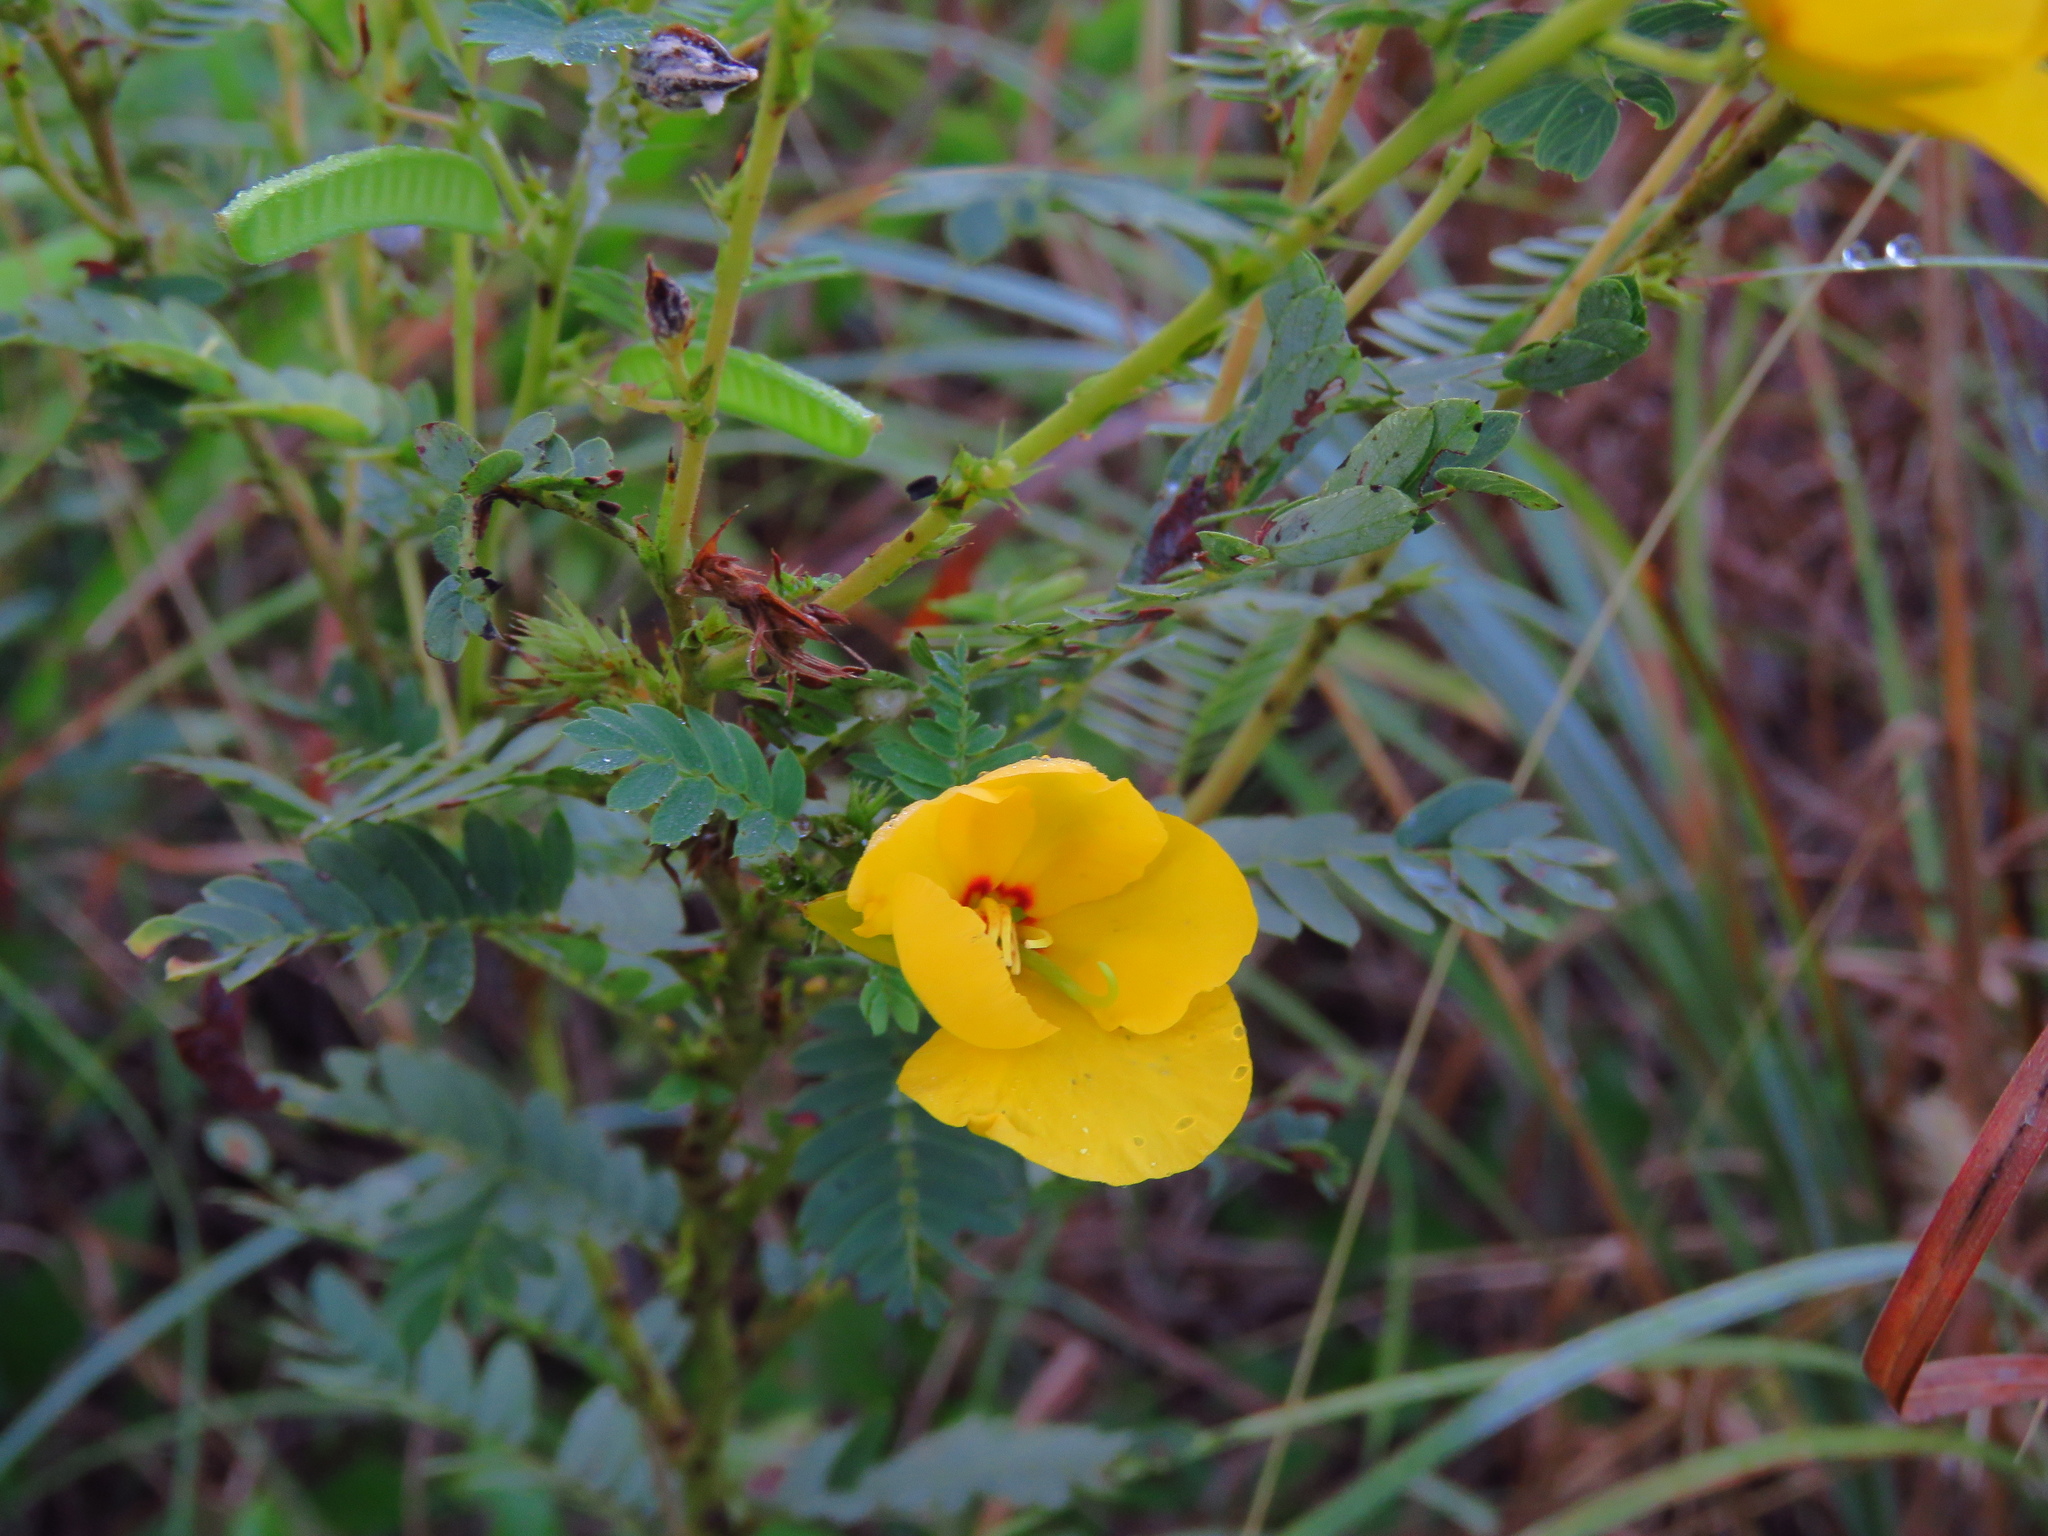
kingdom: Plantae
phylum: Tracheophyta
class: Magnoliopsida
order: Fabales
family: Fabaceae
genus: Chamaecrista
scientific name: Chamaecrista fasciculata
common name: Golden cassia
